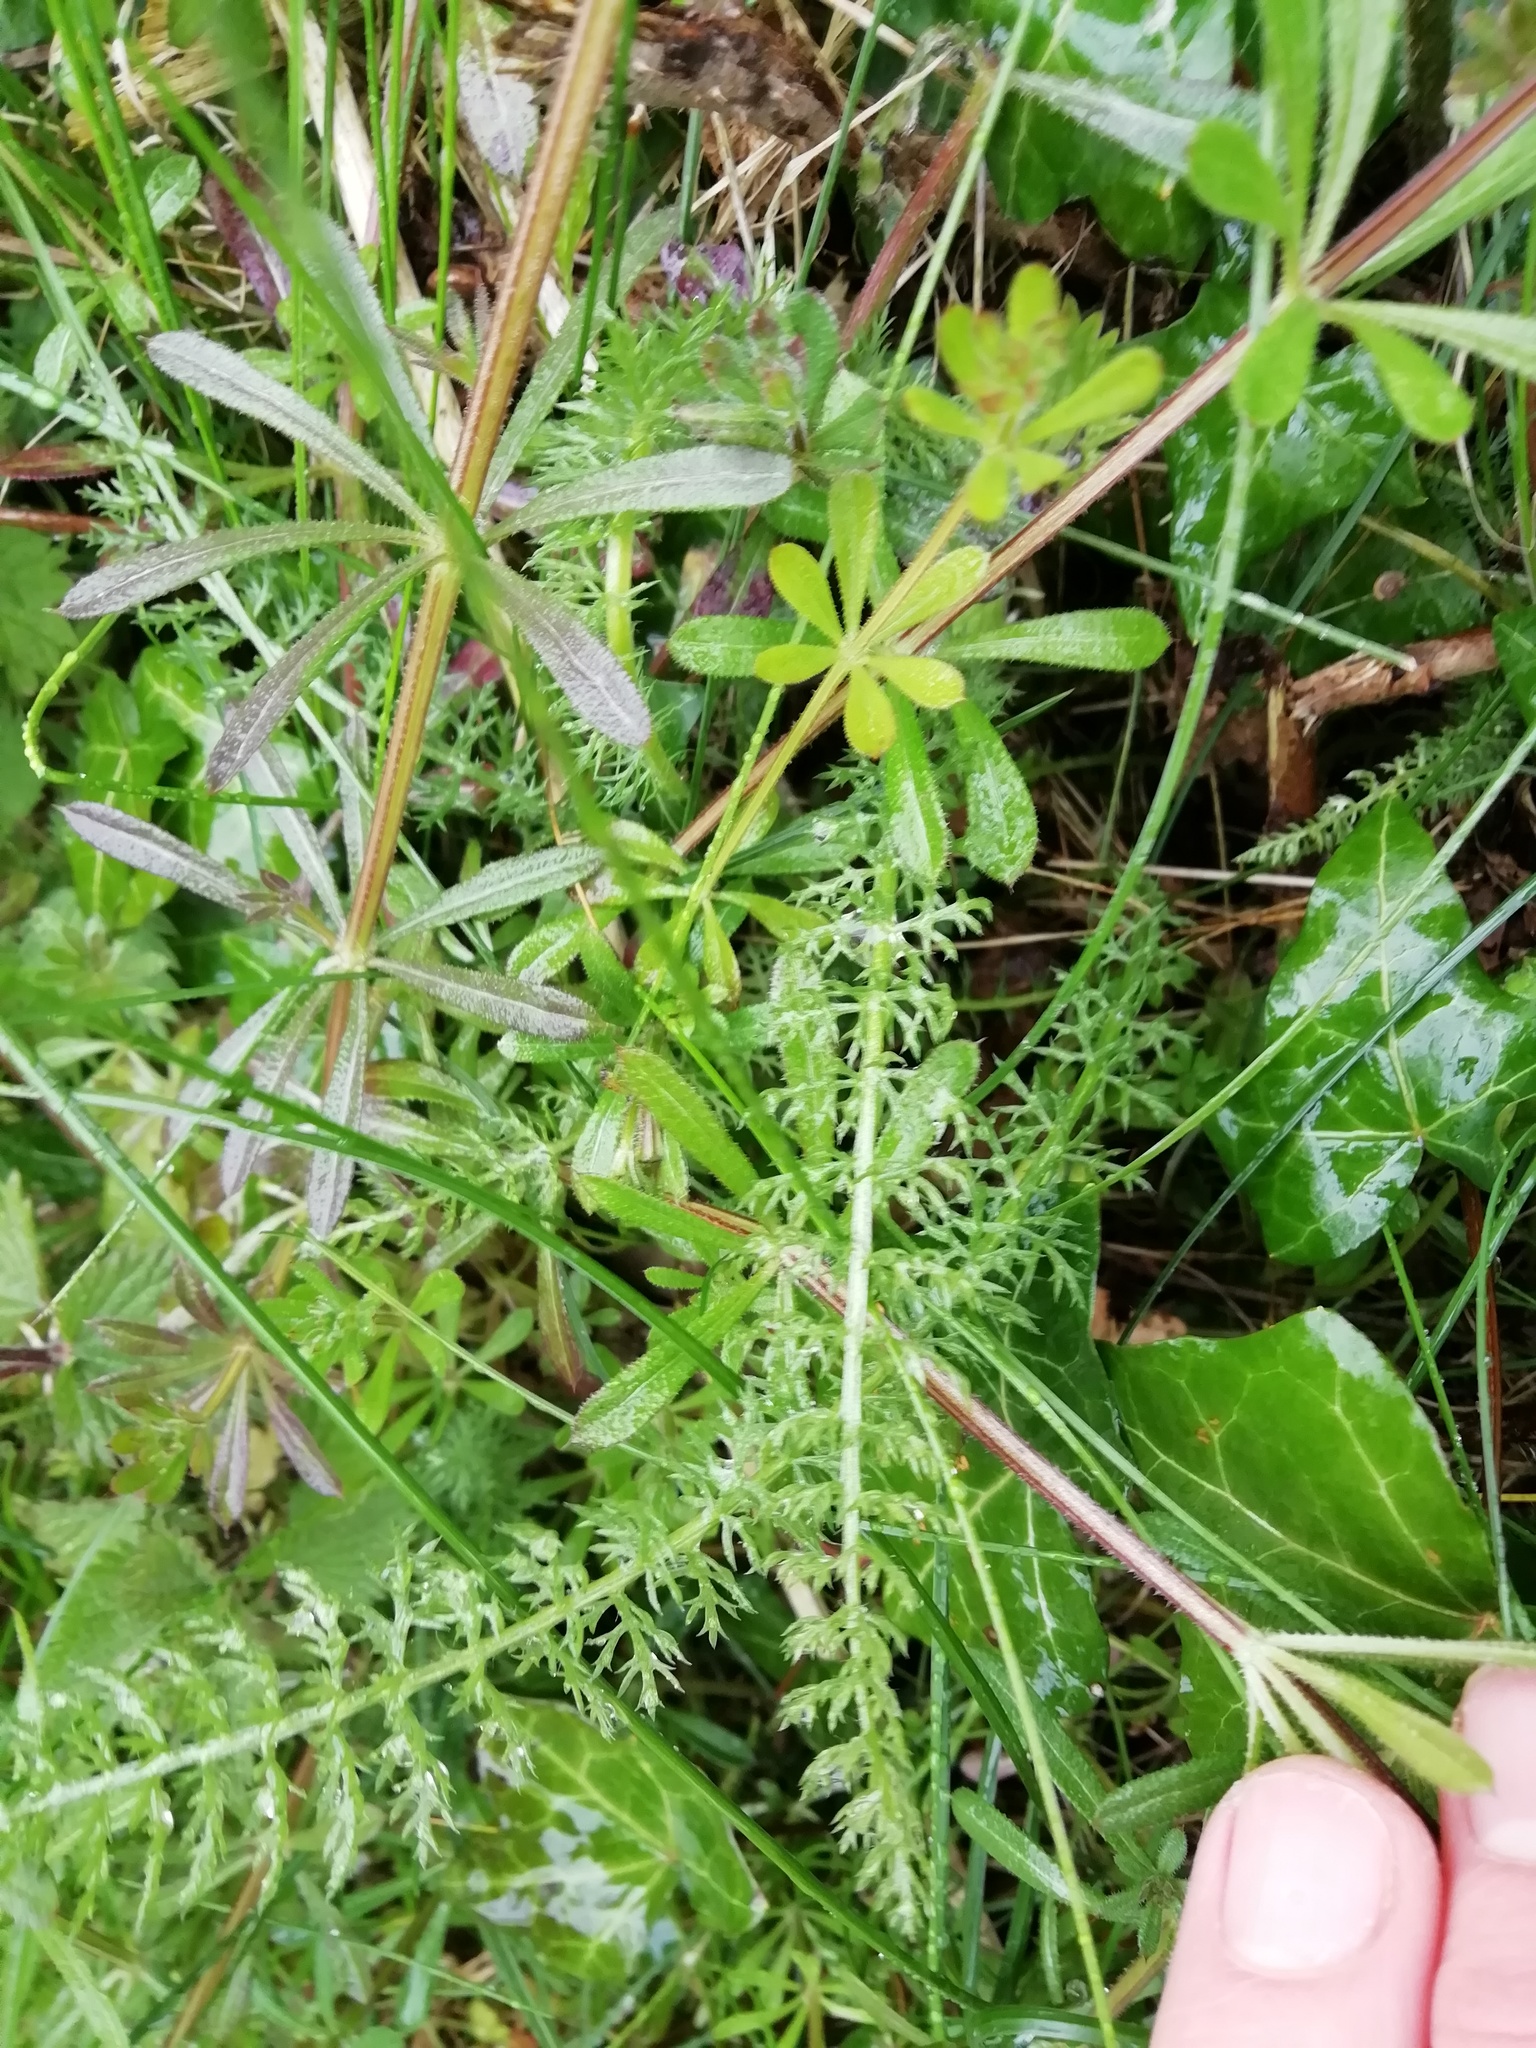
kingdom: Plantae
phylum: Tracheophyta
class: Magnoliopsida
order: Asterales
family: Asteraceae
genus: Achillea
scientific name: Achillea millefolium
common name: Yarrow
